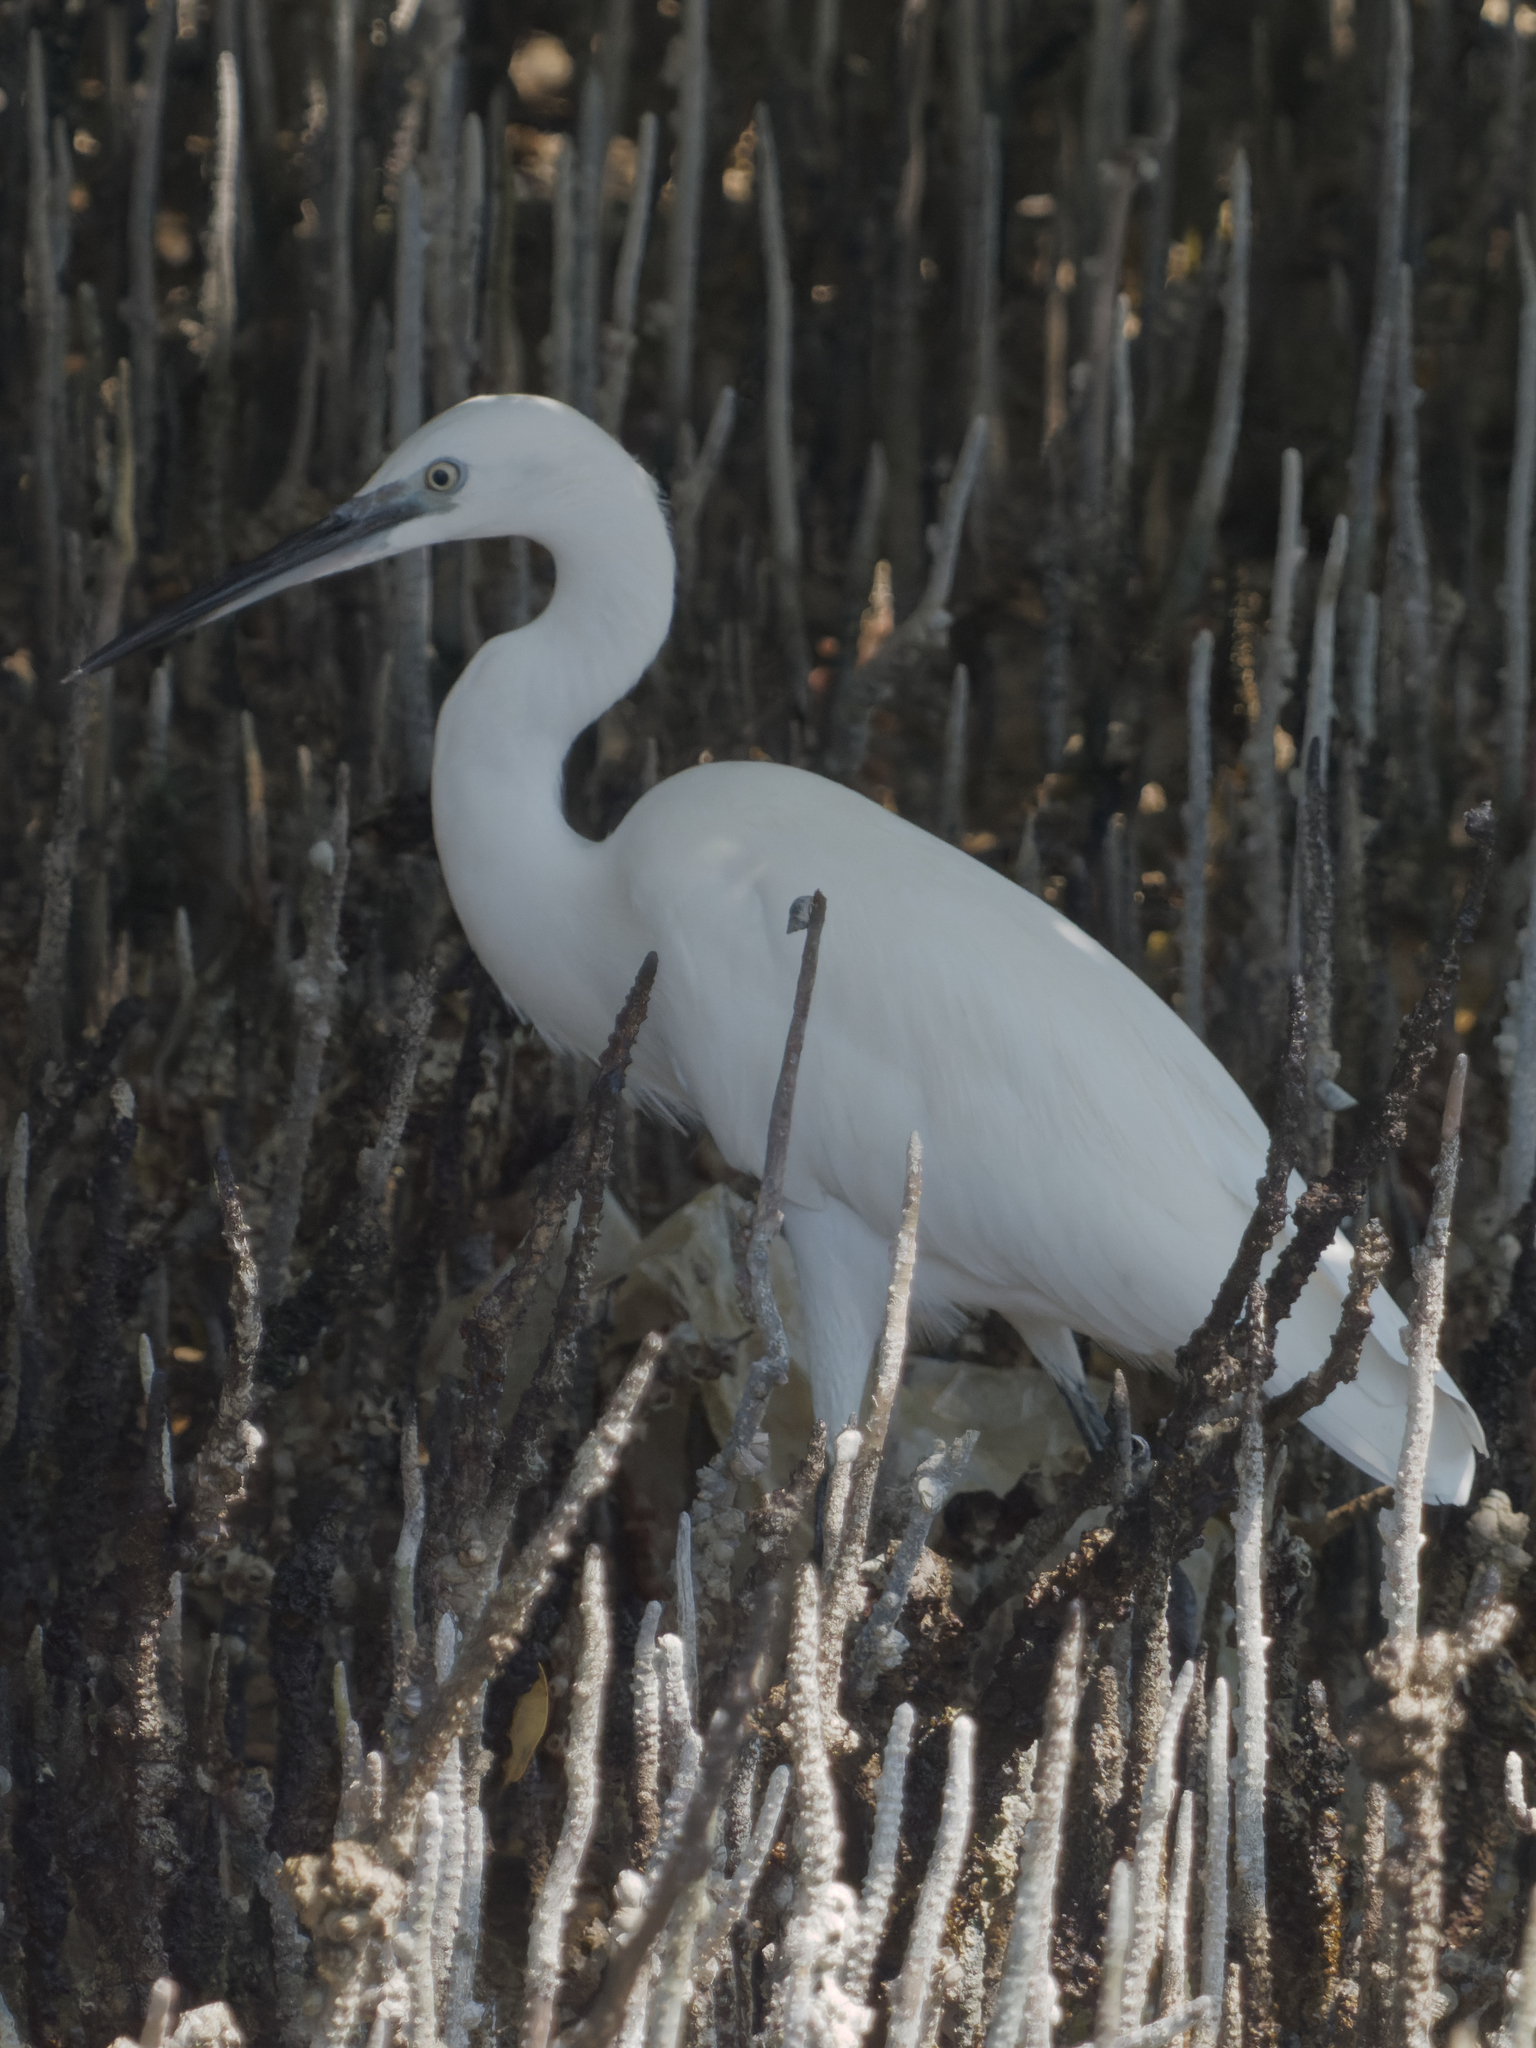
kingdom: Animalia
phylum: Chordata
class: Aves
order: Pelecaniformes
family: Ardeidae
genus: Egretta
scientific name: Egretta garzetta
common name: Little egret
